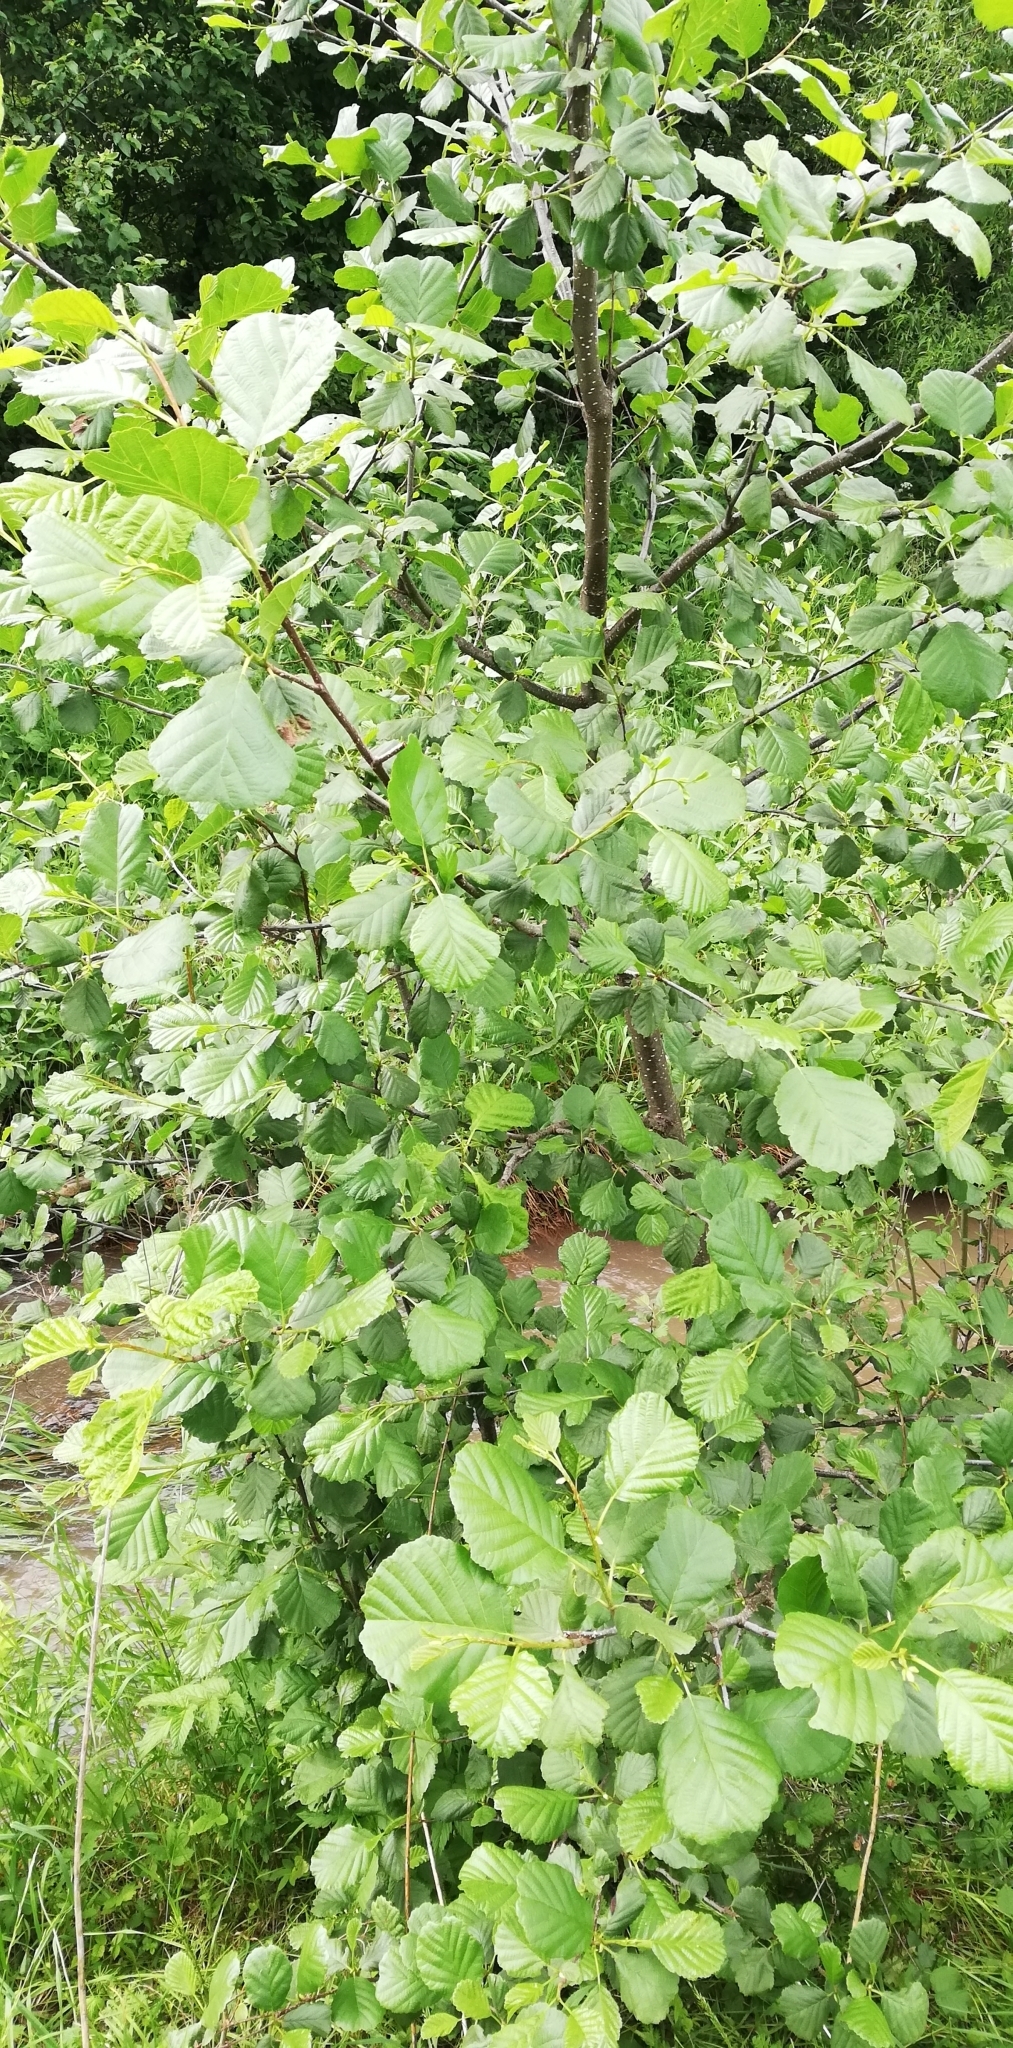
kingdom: Plantae
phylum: Tracheophyta
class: Magnoliopsida
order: Fagales
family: Betulaceae
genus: Alnus
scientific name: Alnus glutinosa
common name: Black alder
